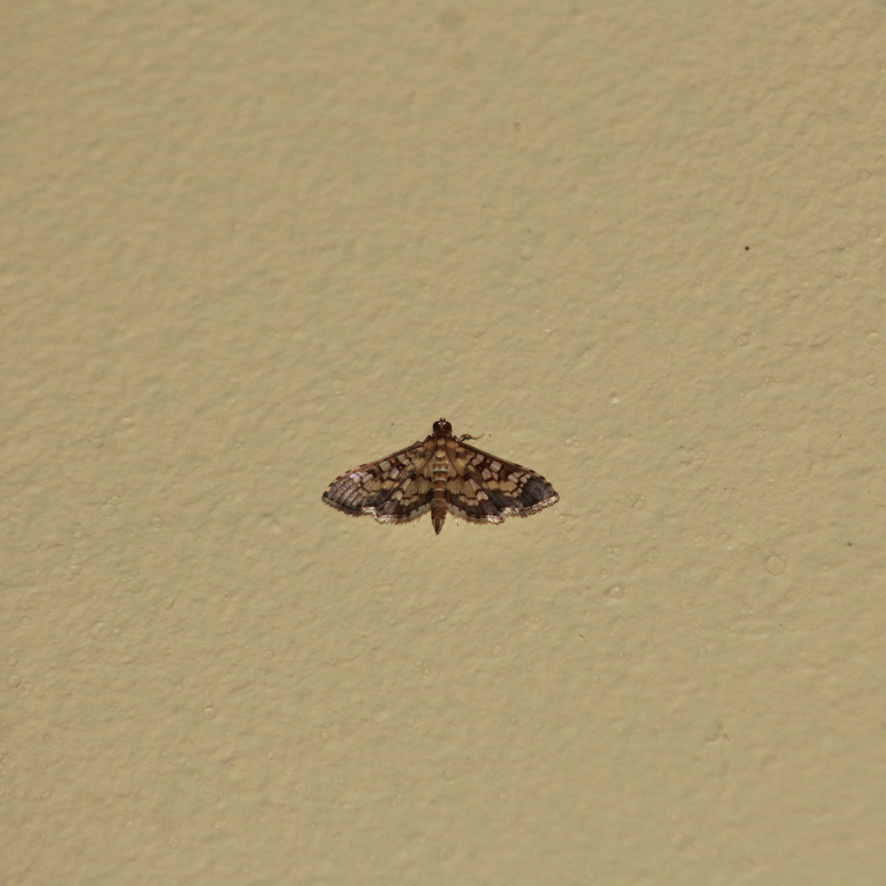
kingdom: Animalia
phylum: Arthropoda
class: Insecta
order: Lepidoptera
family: Crambidae
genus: Samea
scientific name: Samea ecclesialis
